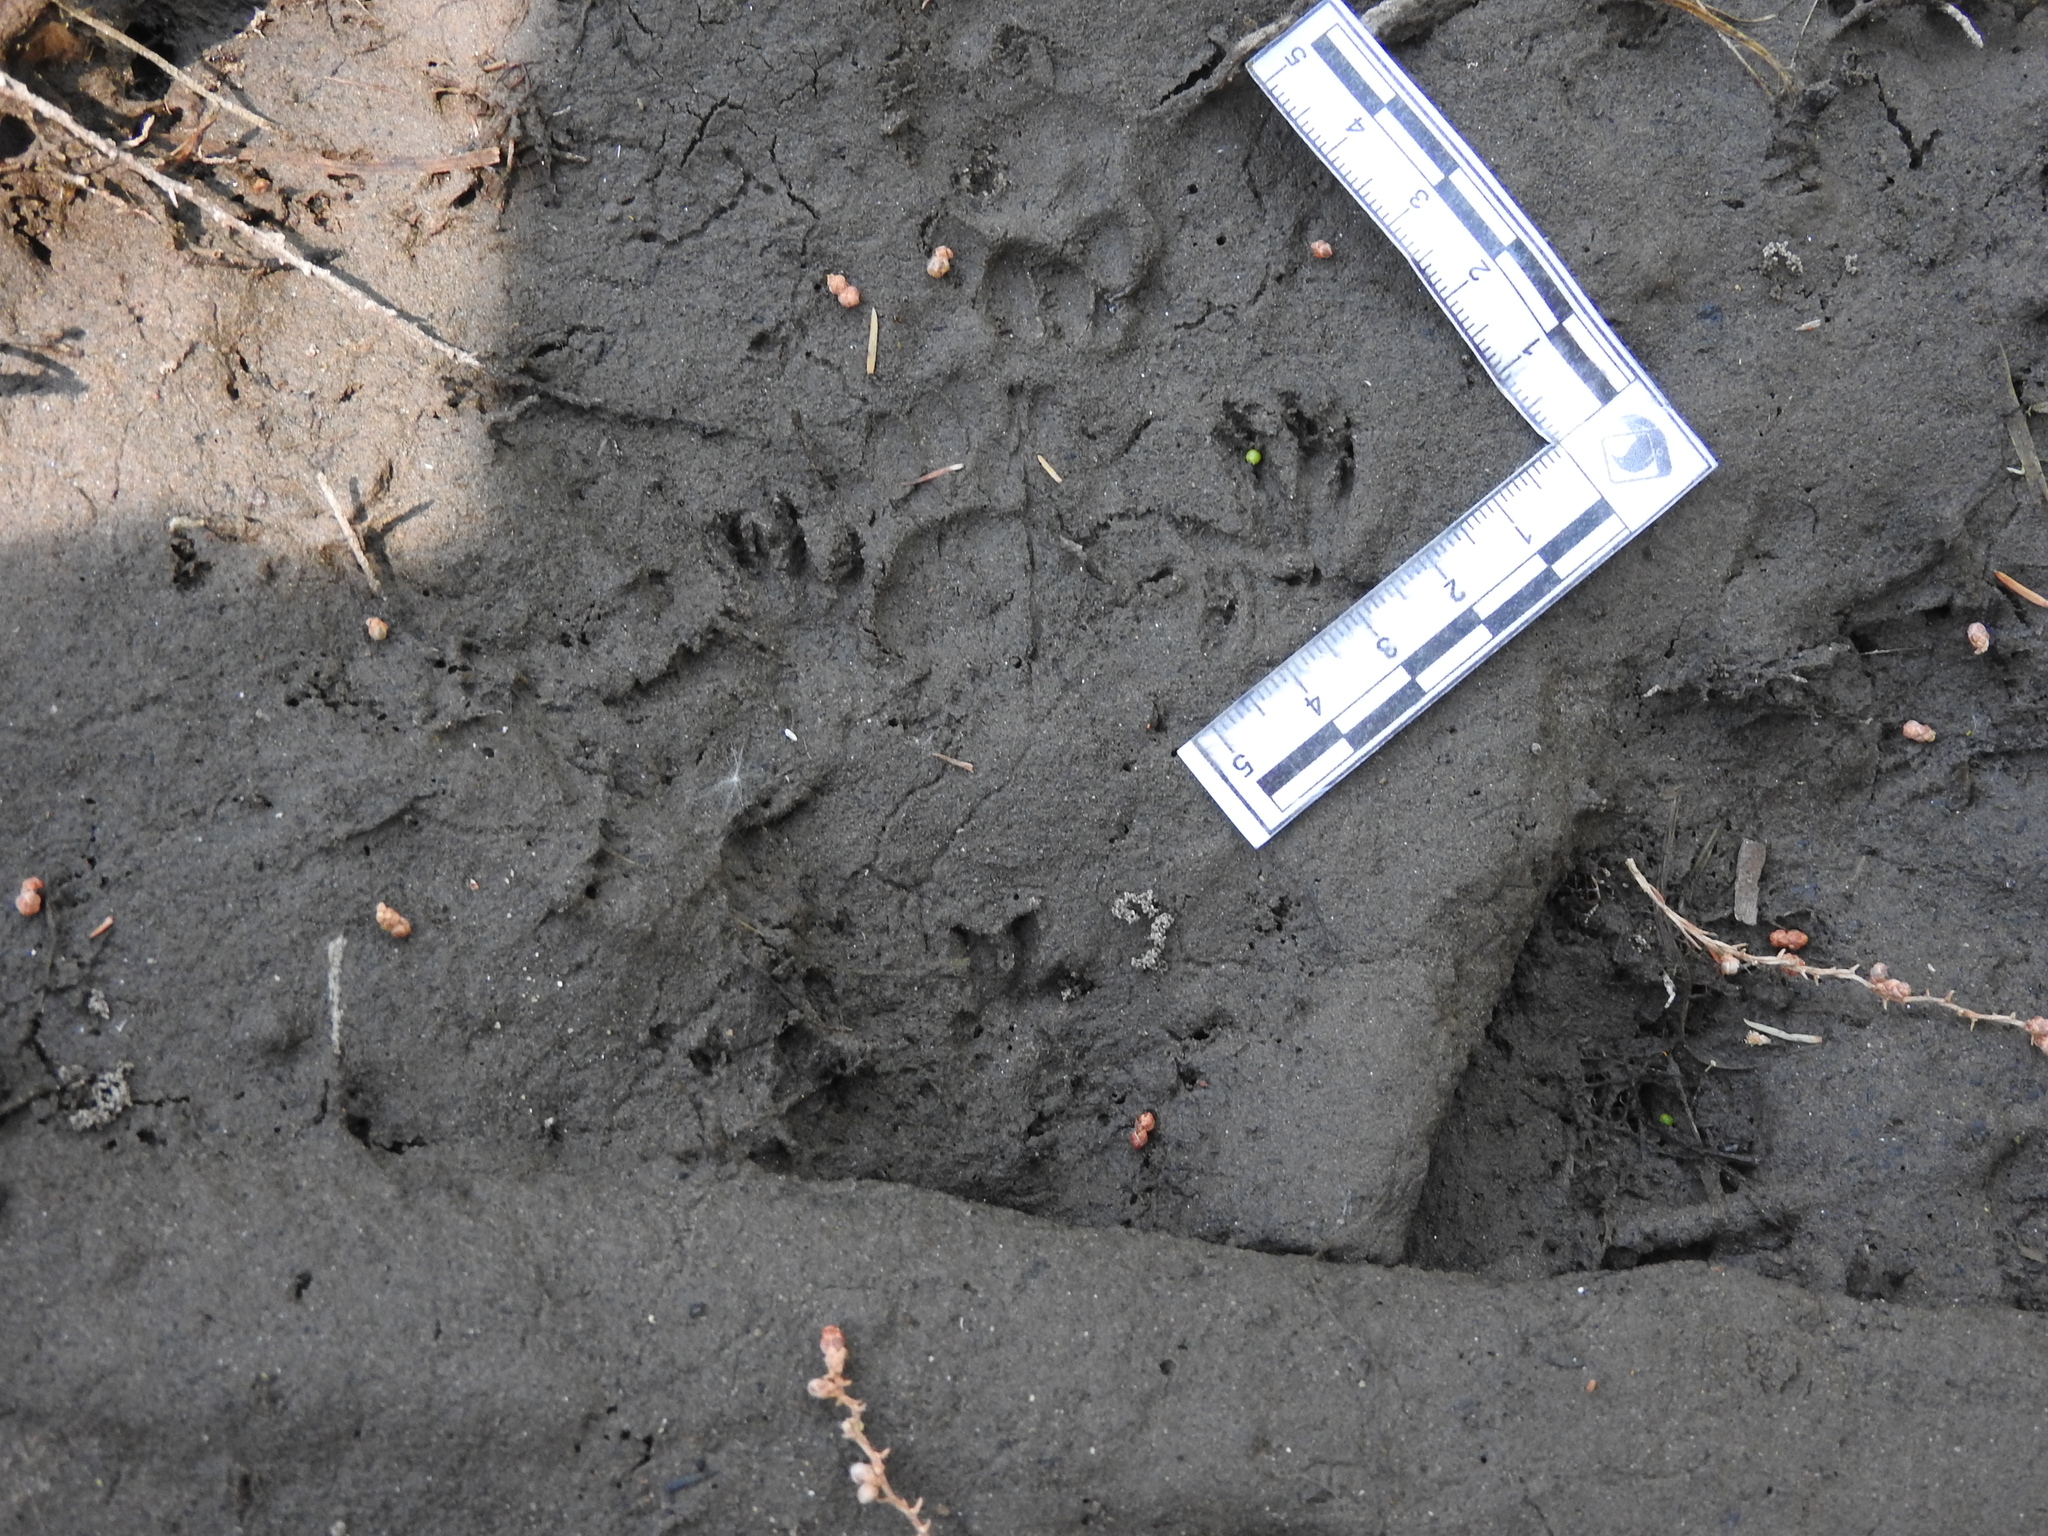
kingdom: Animalia
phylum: Chordata
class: Mammalia
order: Carnivora
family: Mustelidae
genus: Mustela
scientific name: Mustela
